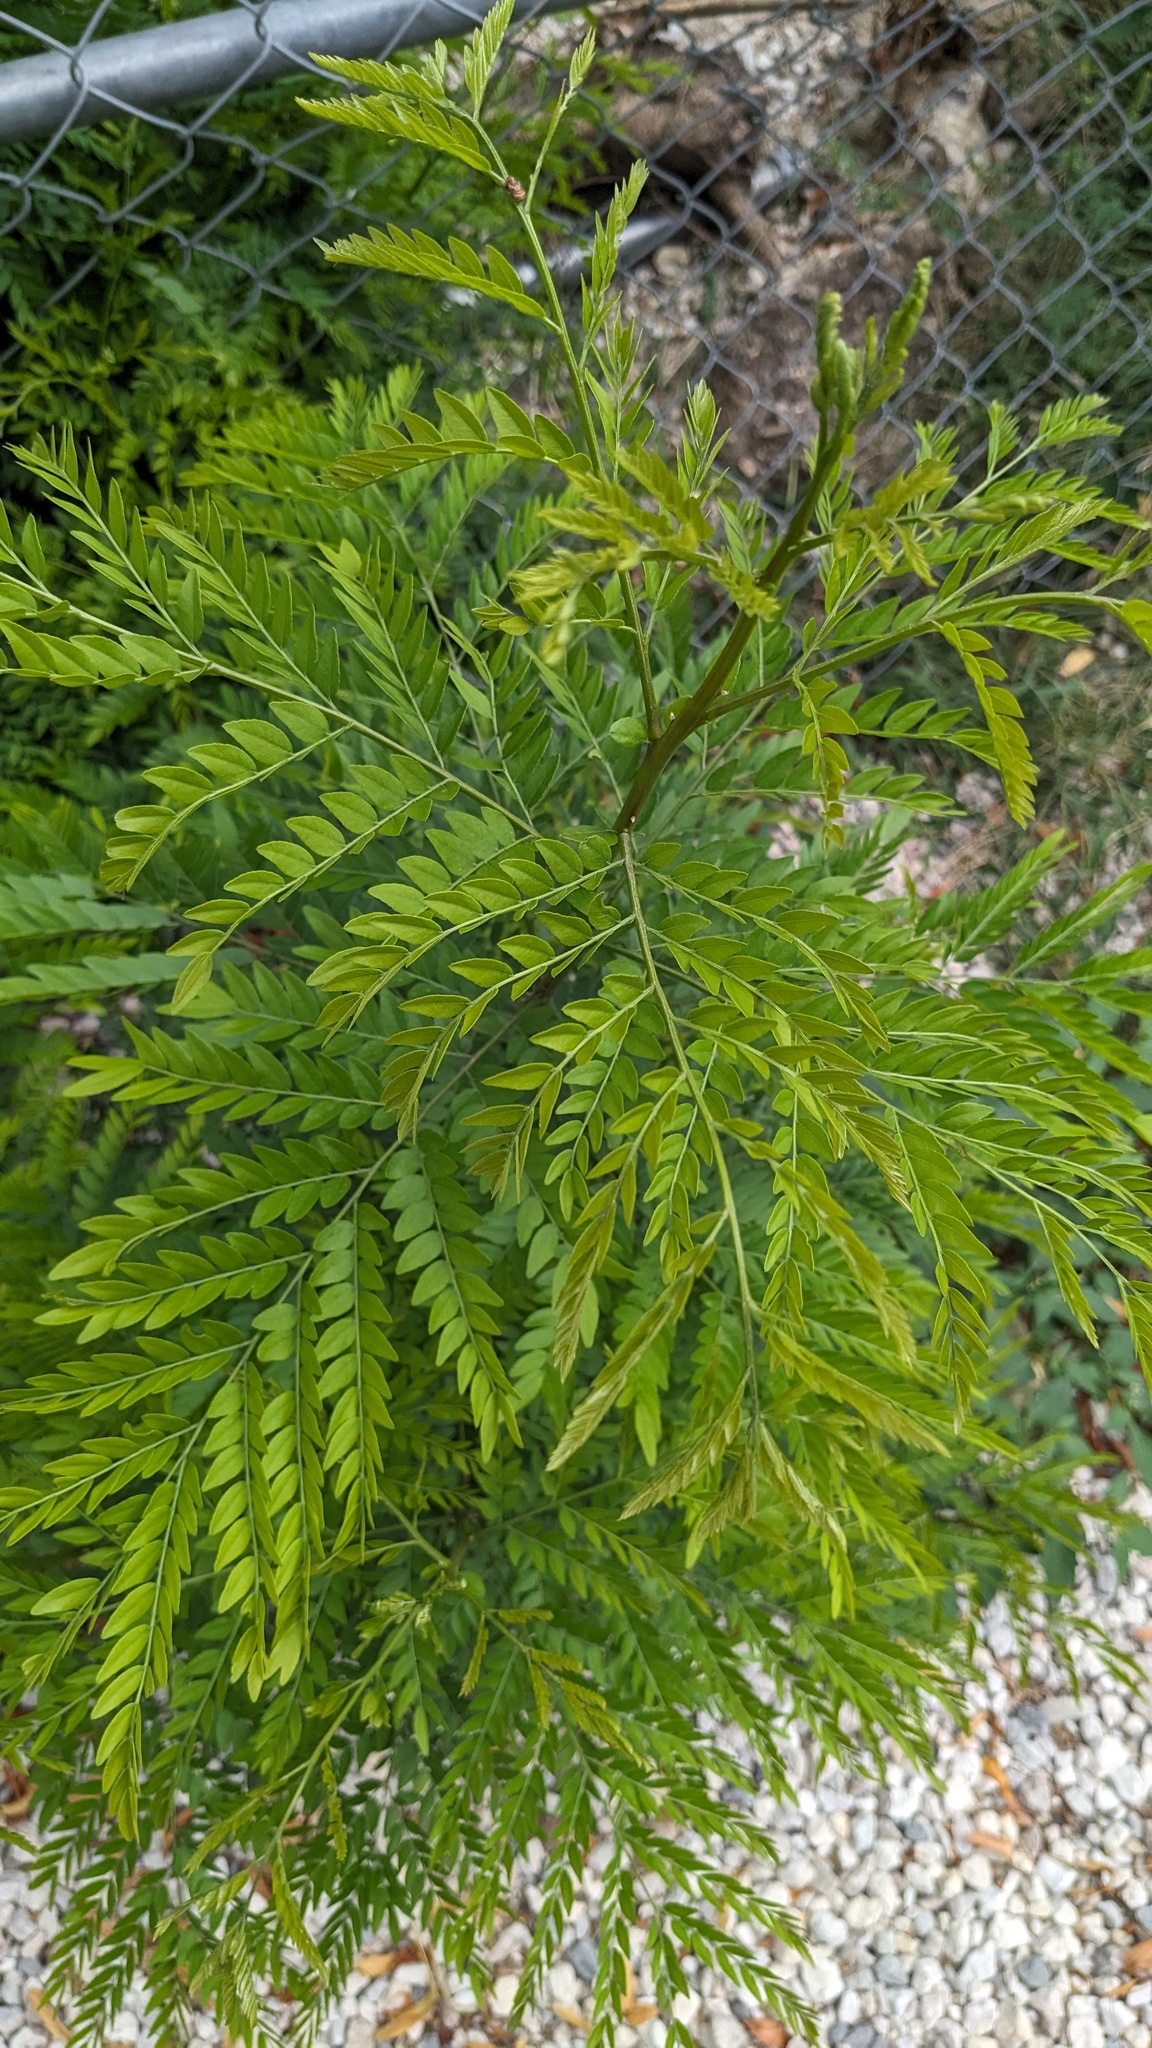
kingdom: Plantae
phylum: Tracheophyta
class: Magnoliopsida
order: Fabales
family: Fabaceae
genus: Gleditsia
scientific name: Gleditsia triacanthos
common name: Common honeylocust
